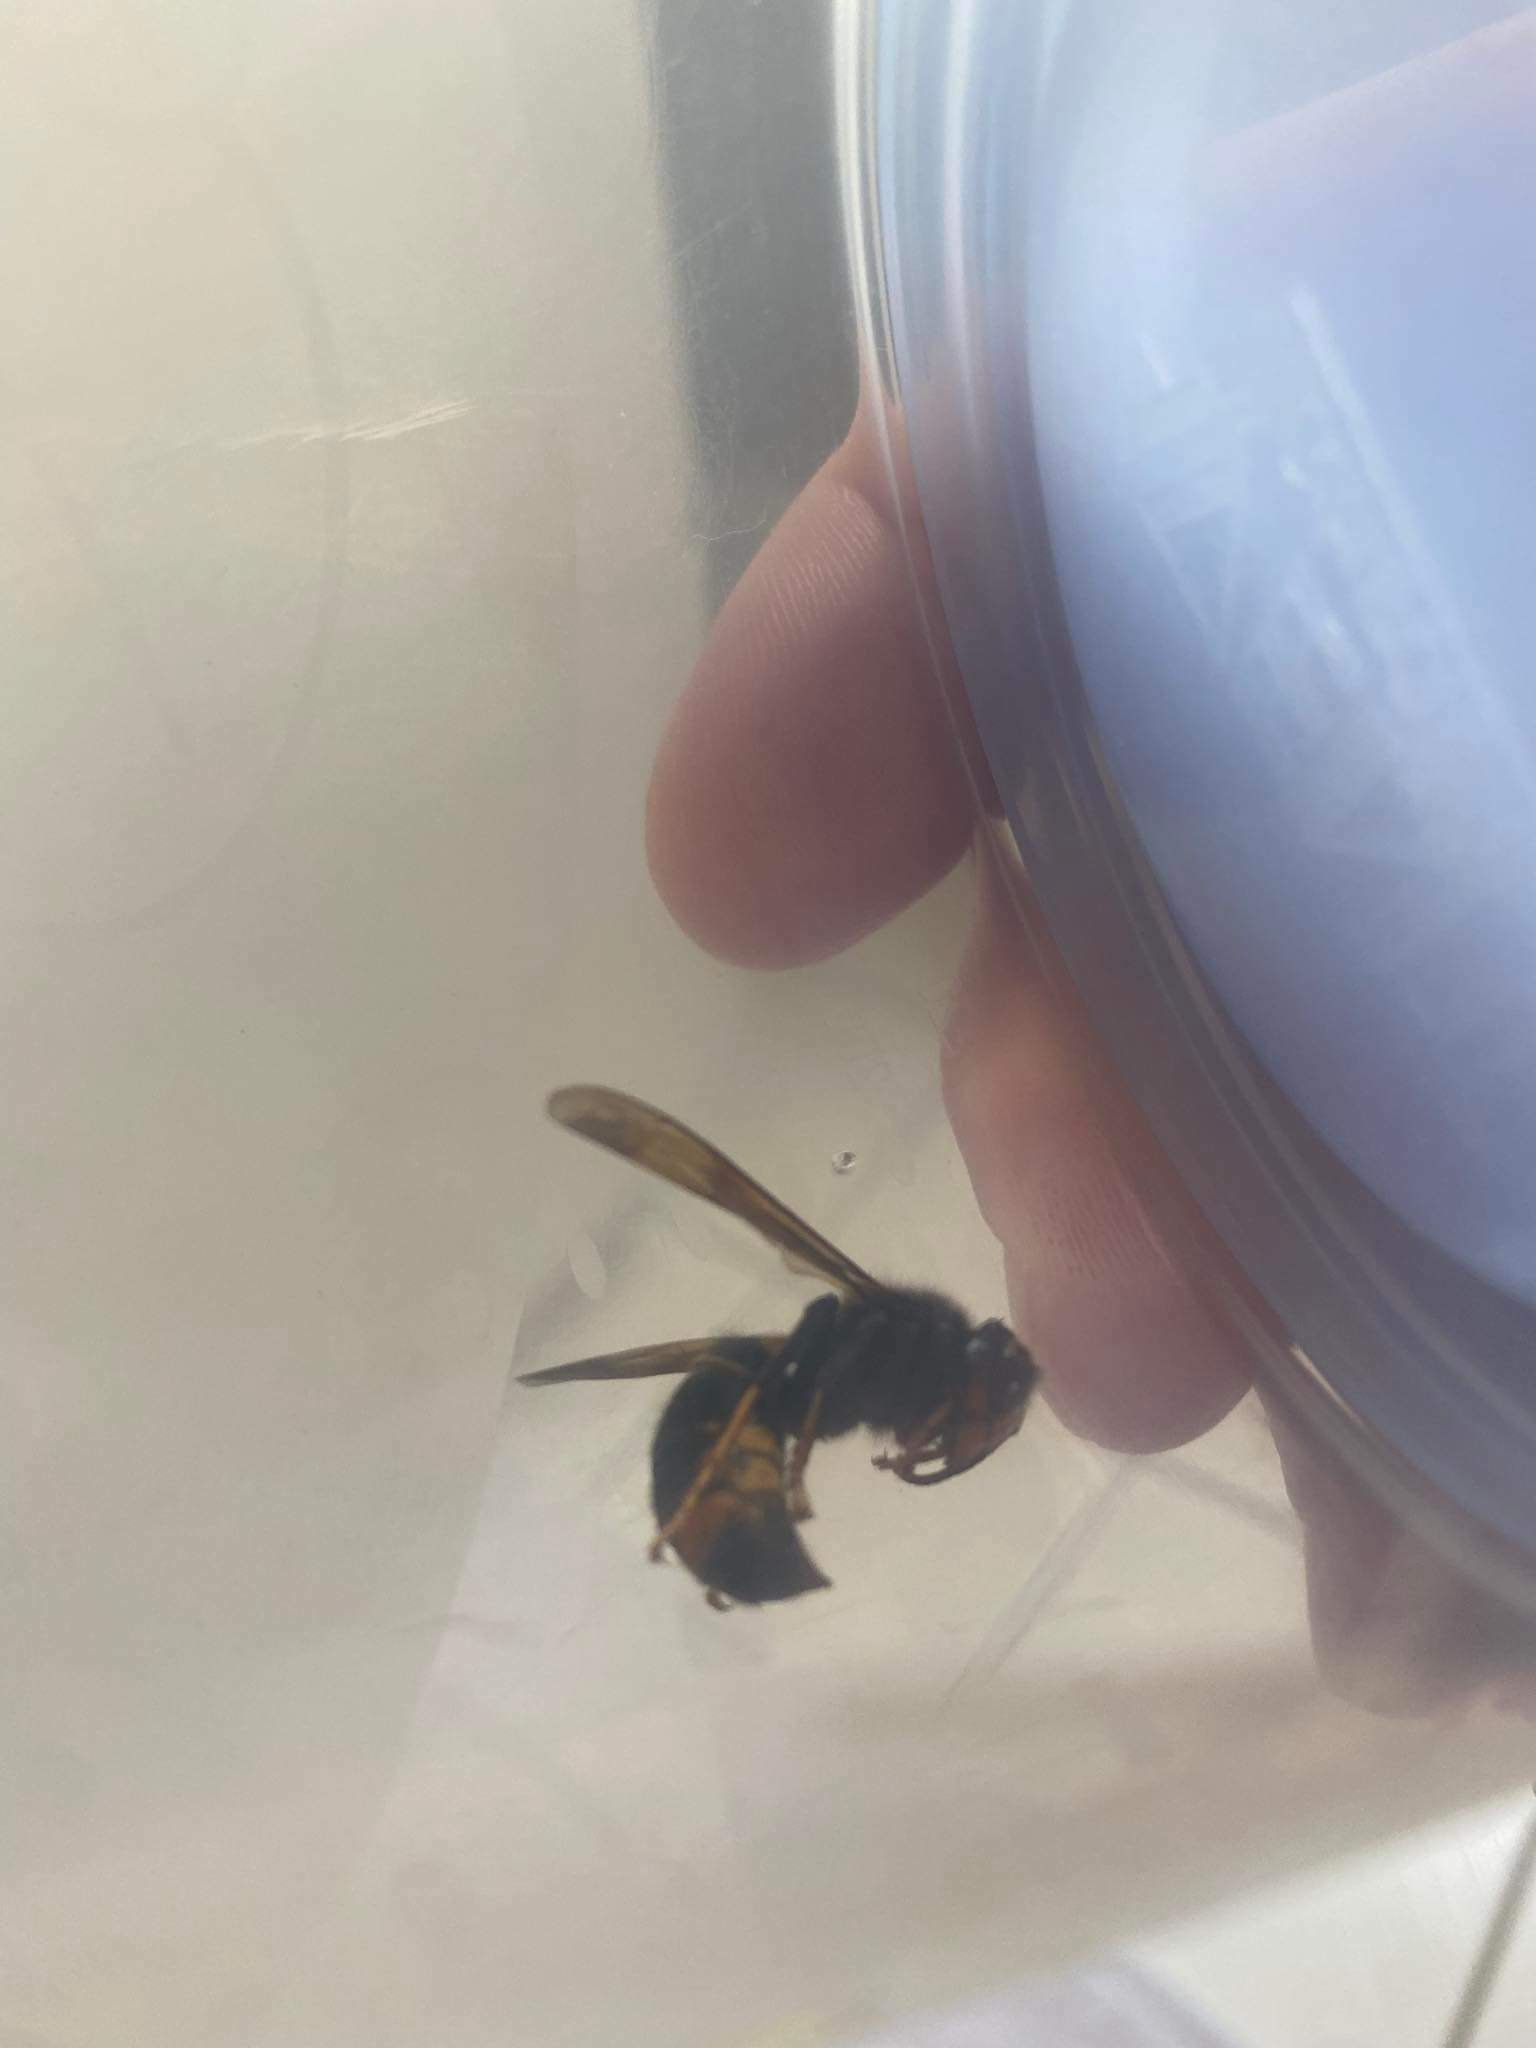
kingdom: Animalia
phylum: Arthropoda
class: Insecta
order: Hymenoptera
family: Vespidae
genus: Vespa
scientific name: Vespa velutina
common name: Asian hornet
